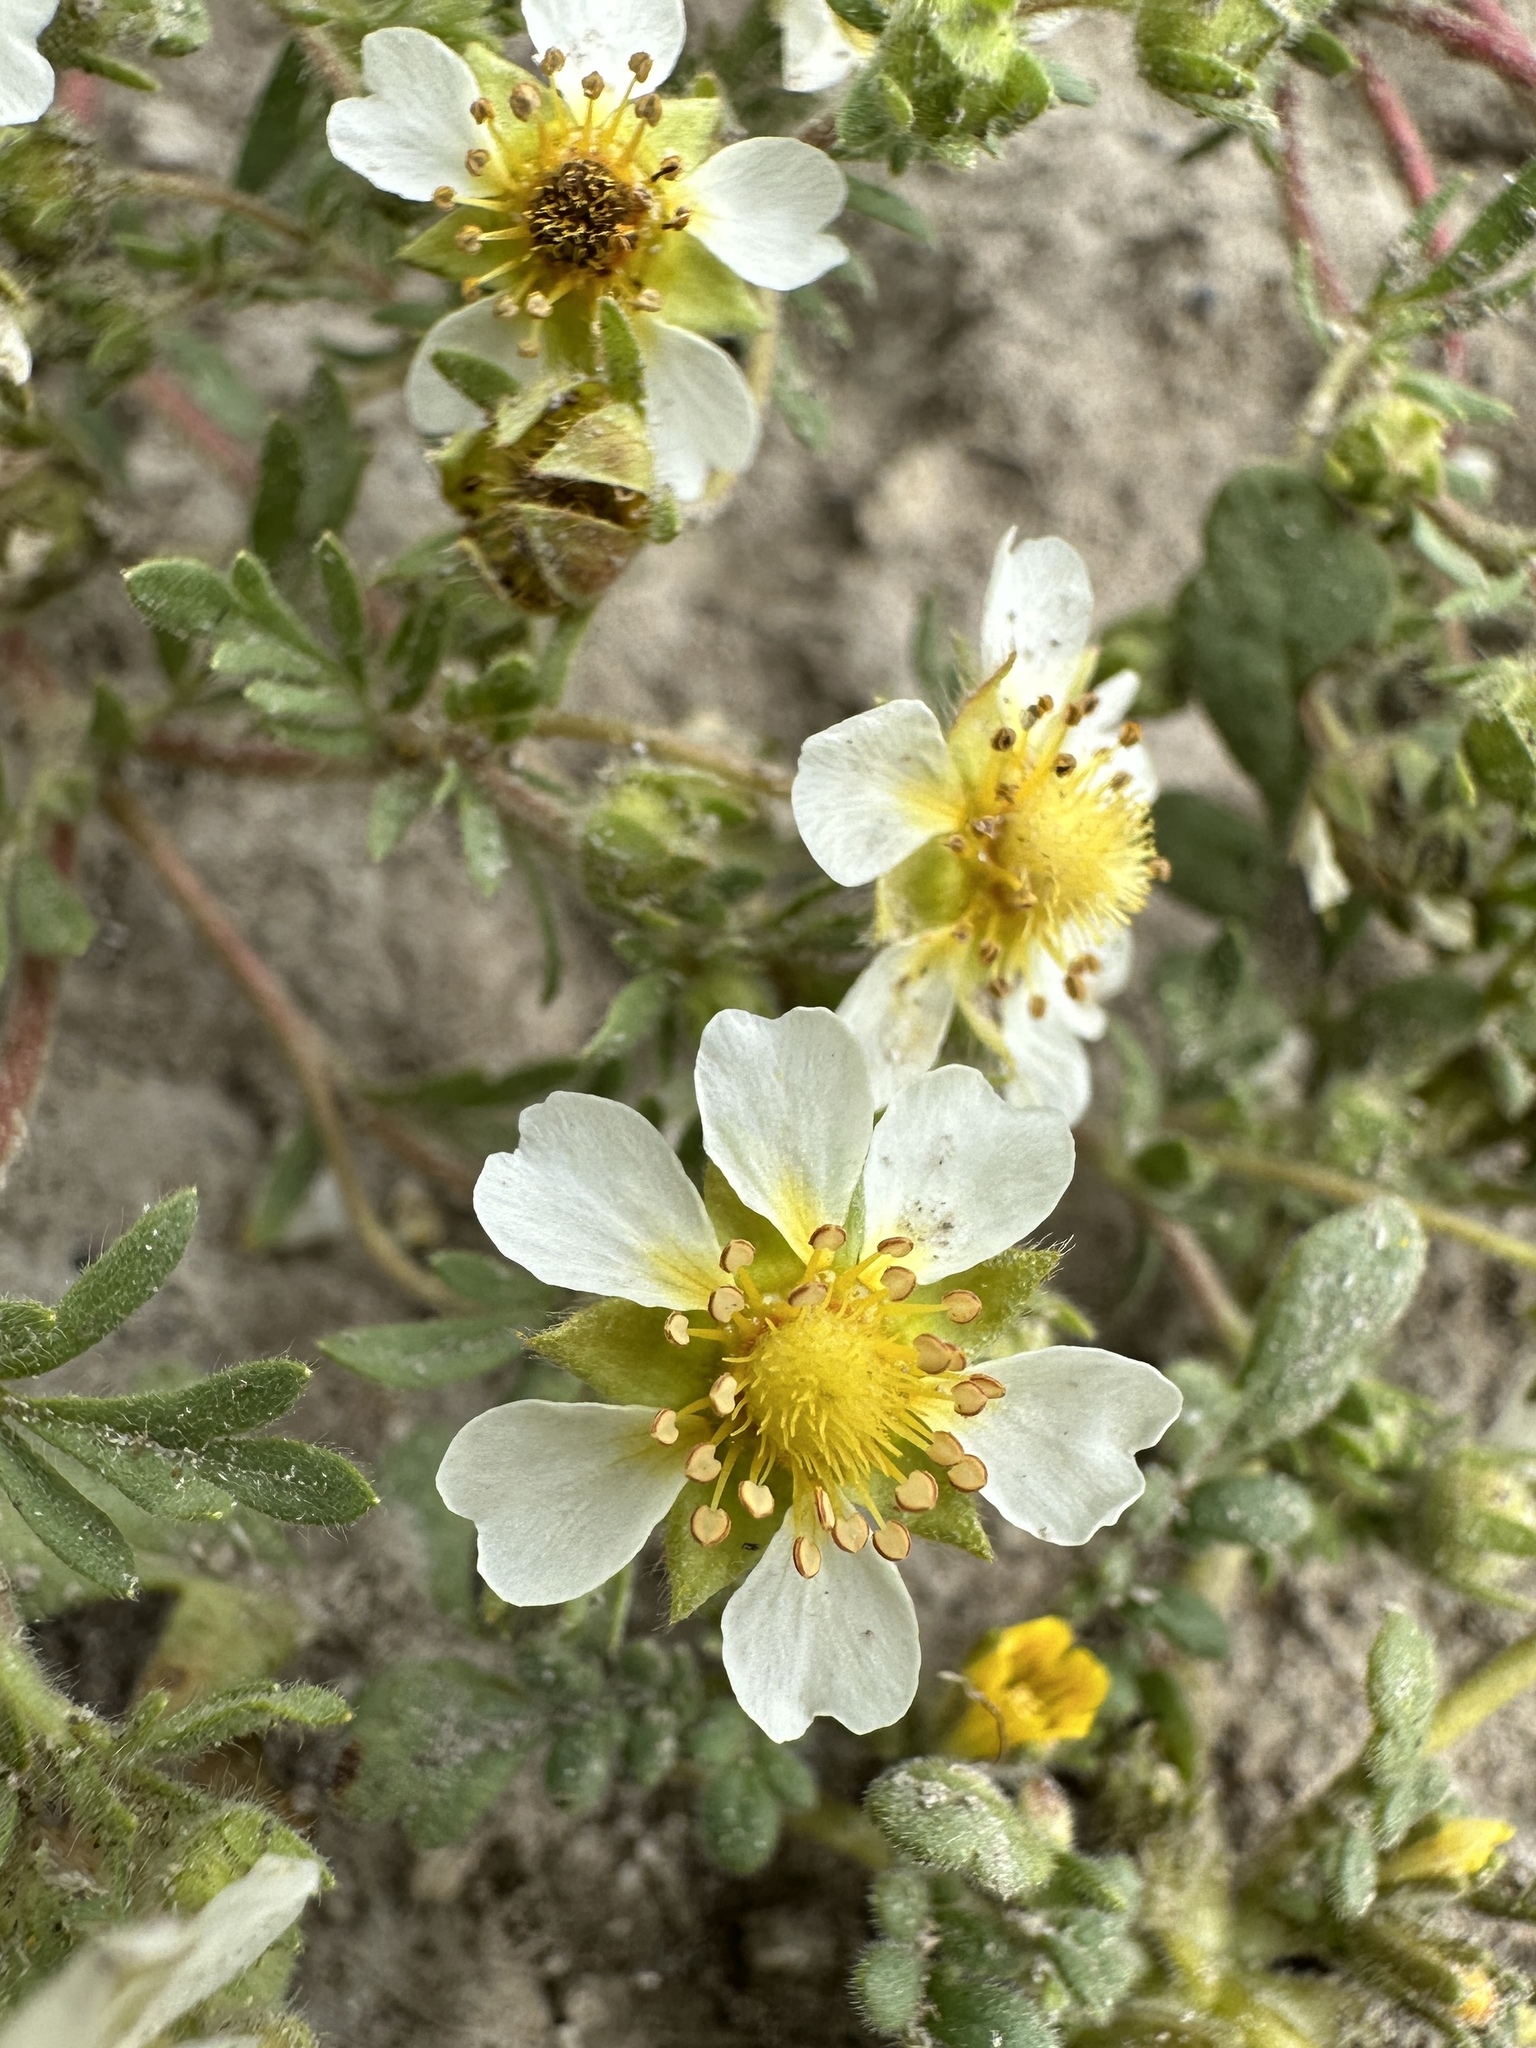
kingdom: Plantae
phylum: Tracheophyta
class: Magnoliopsida
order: Rosales
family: Rosaceae
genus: Potentilla
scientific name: Potentilla newberryi
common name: Newberry's cinquefoil
